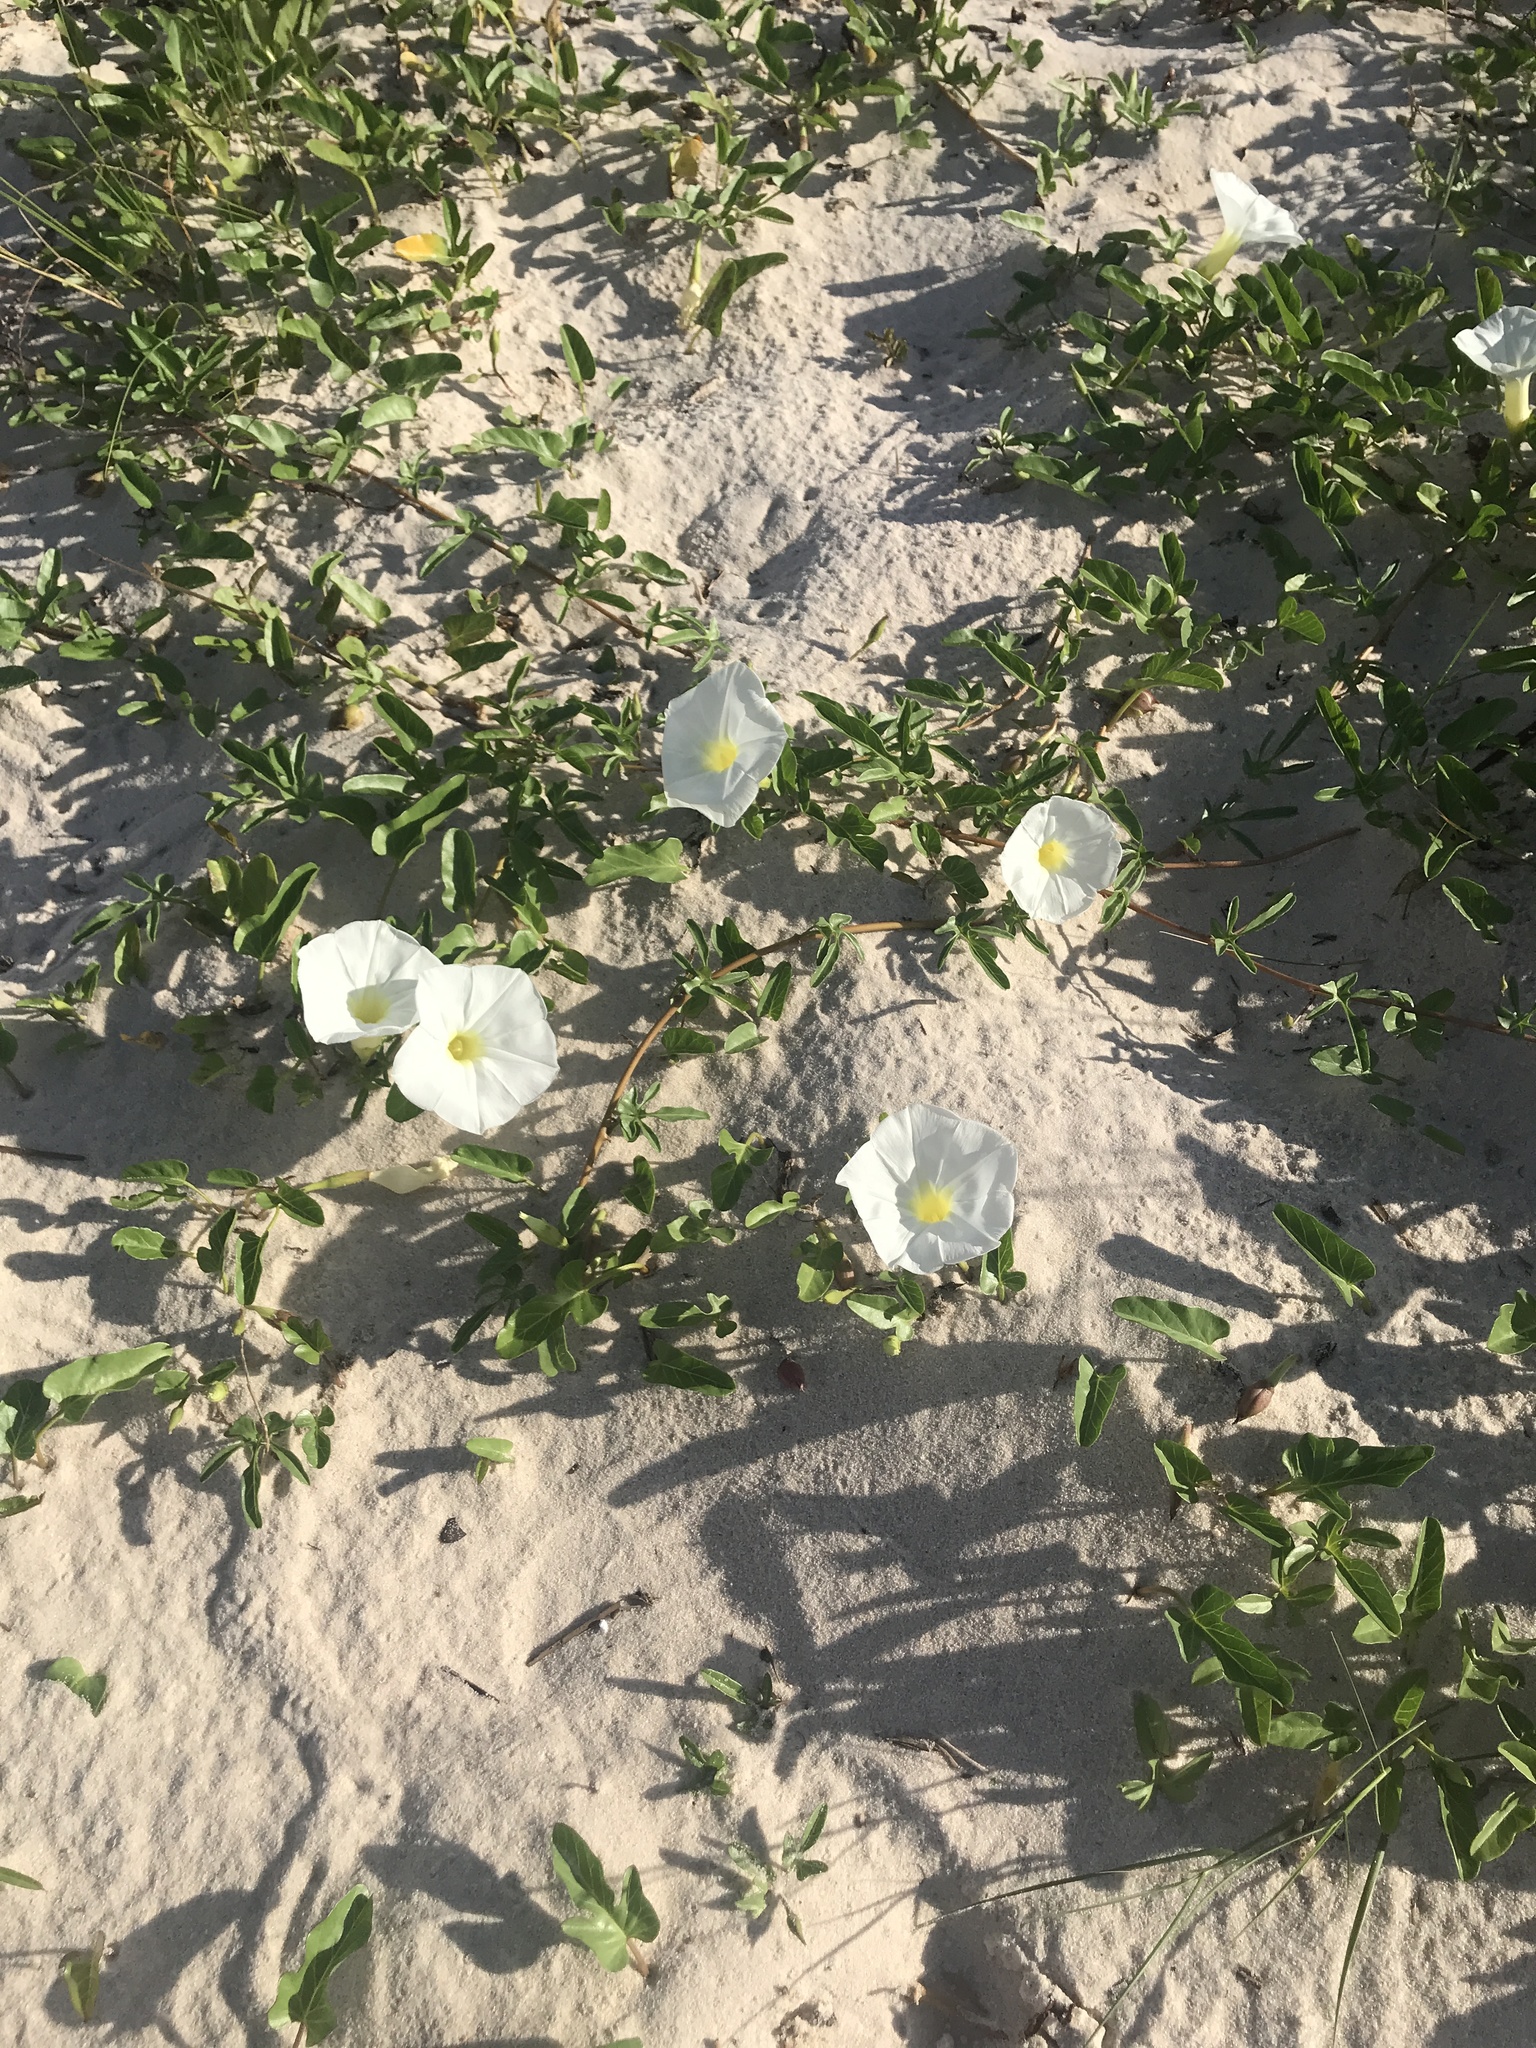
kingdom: Plantae
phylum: Tracheophyta
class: Magnoliopsida
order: Solanales
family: Convolvulaceae
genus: Ipomoea
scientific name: Ipomoea imperati
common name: Fiddle-leaf morning-glory
